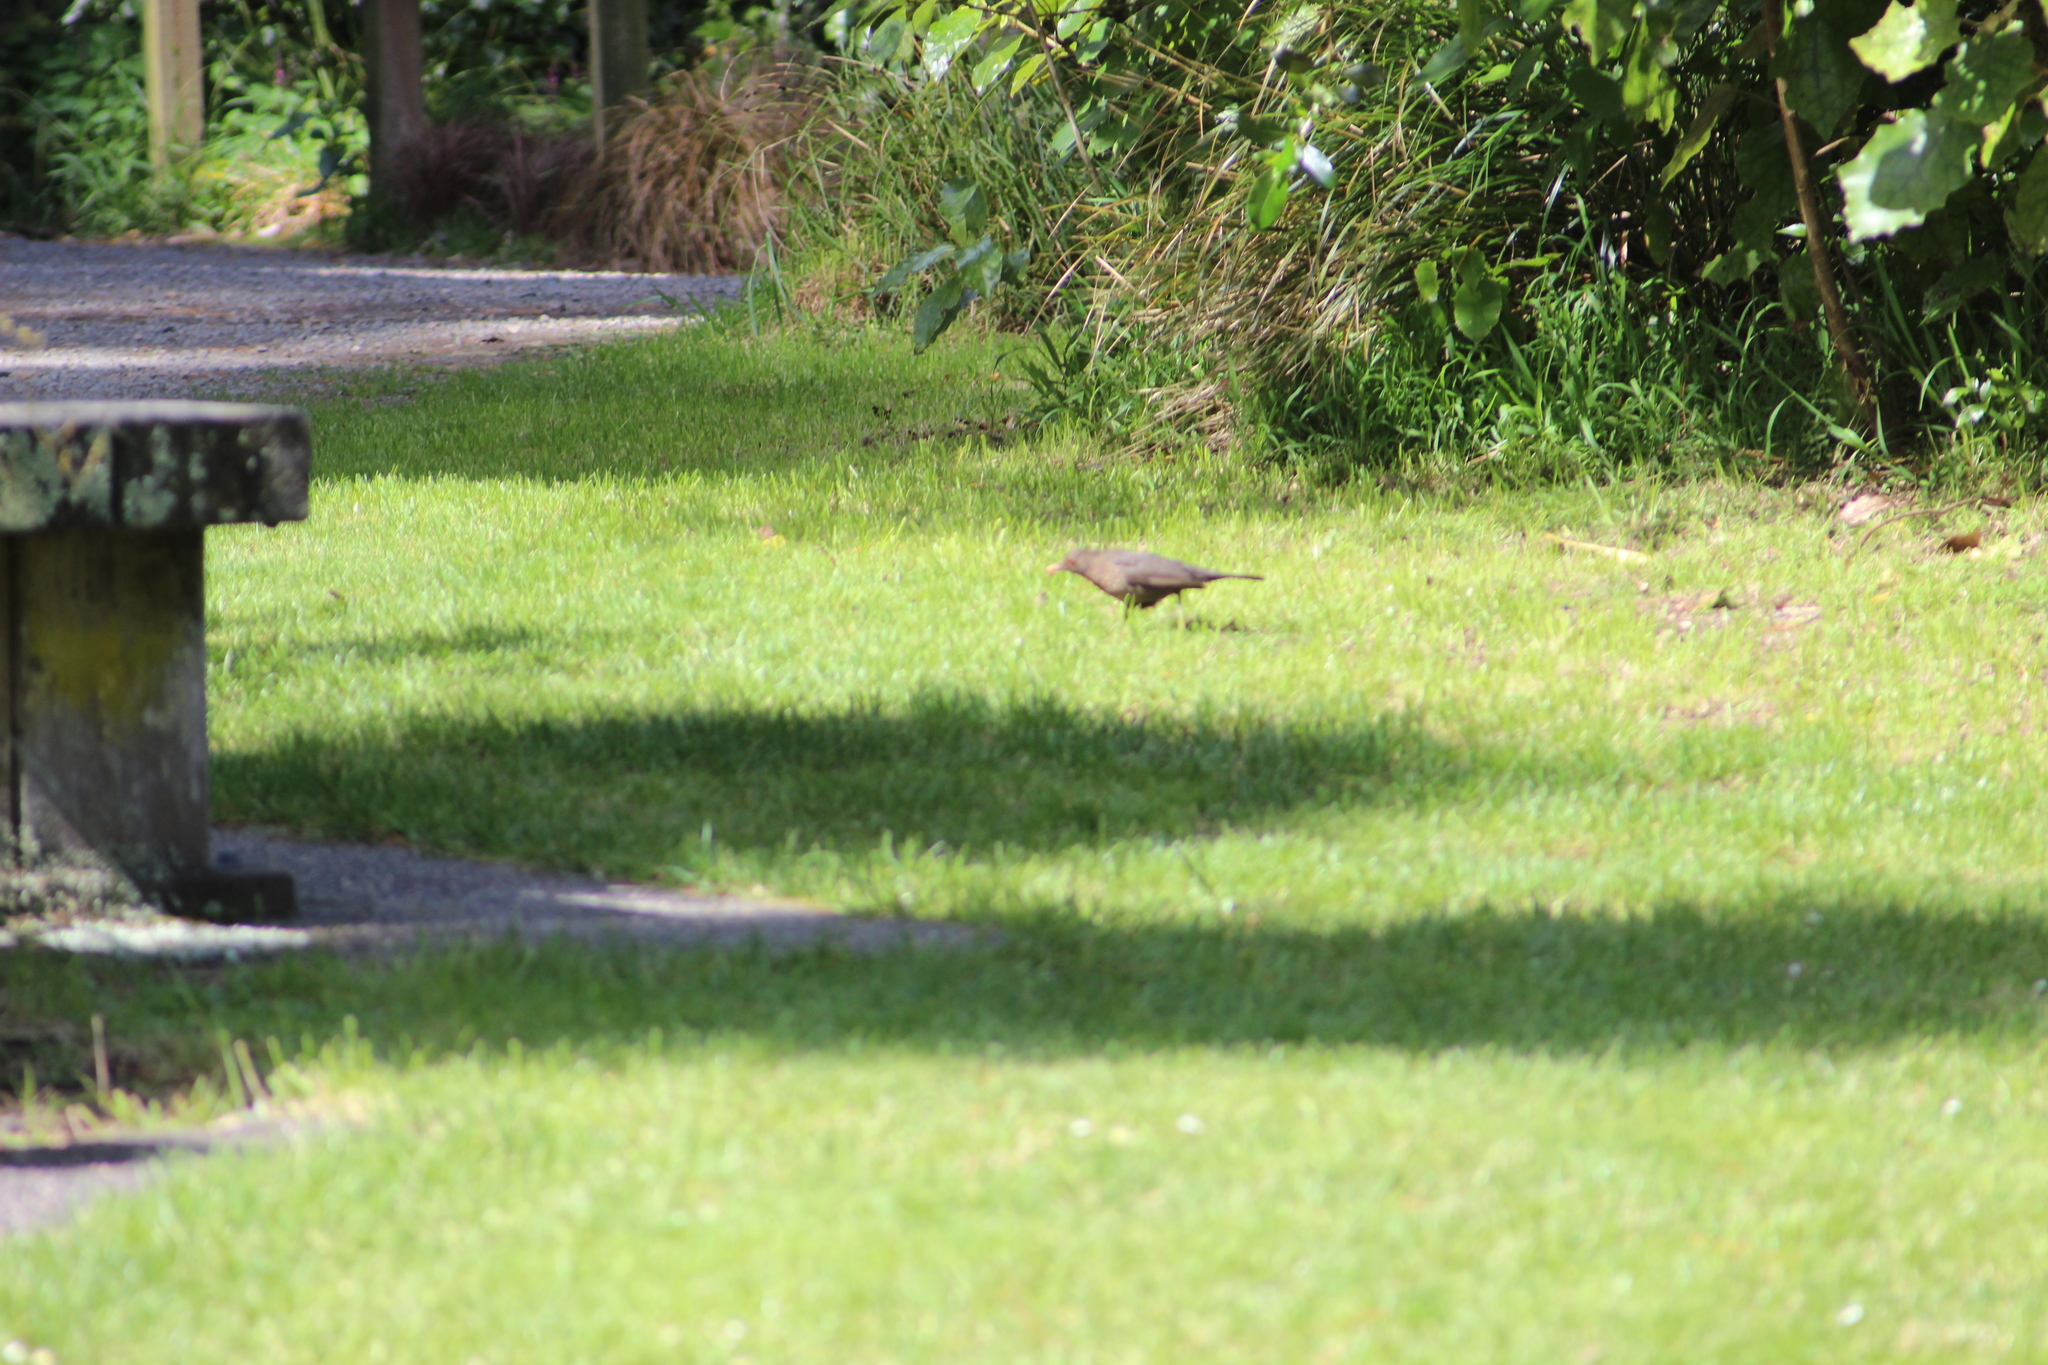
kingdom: Animalia
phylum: Chordata
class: Aves
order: Passeriformes
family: Turdidae
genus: Turdus
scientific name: Turdus merula
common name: Common blackbird
